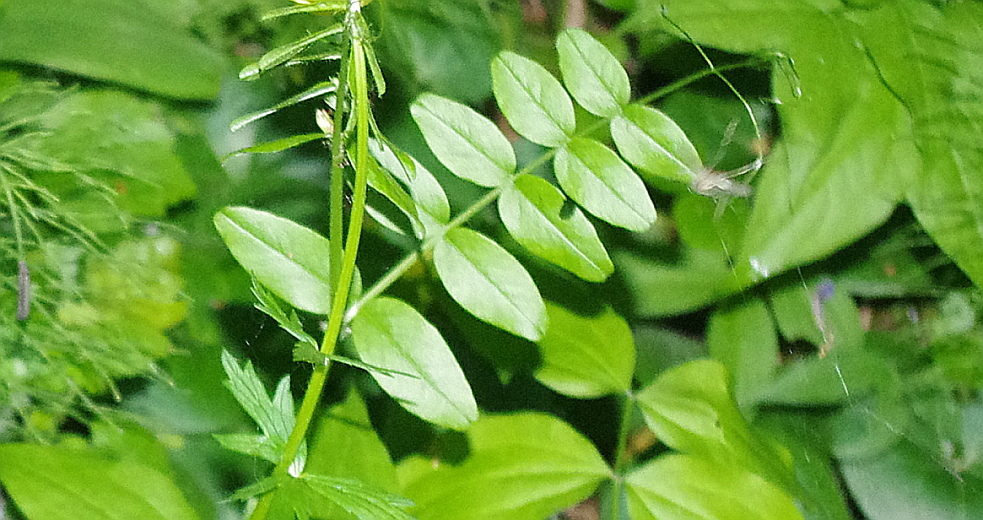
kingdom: Plantae
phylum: Tracheophyta
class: Magnoliopsida
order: Fabales
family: Fabaceae
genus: Vicia
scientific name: Vicia sepium
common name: Bush vetch
